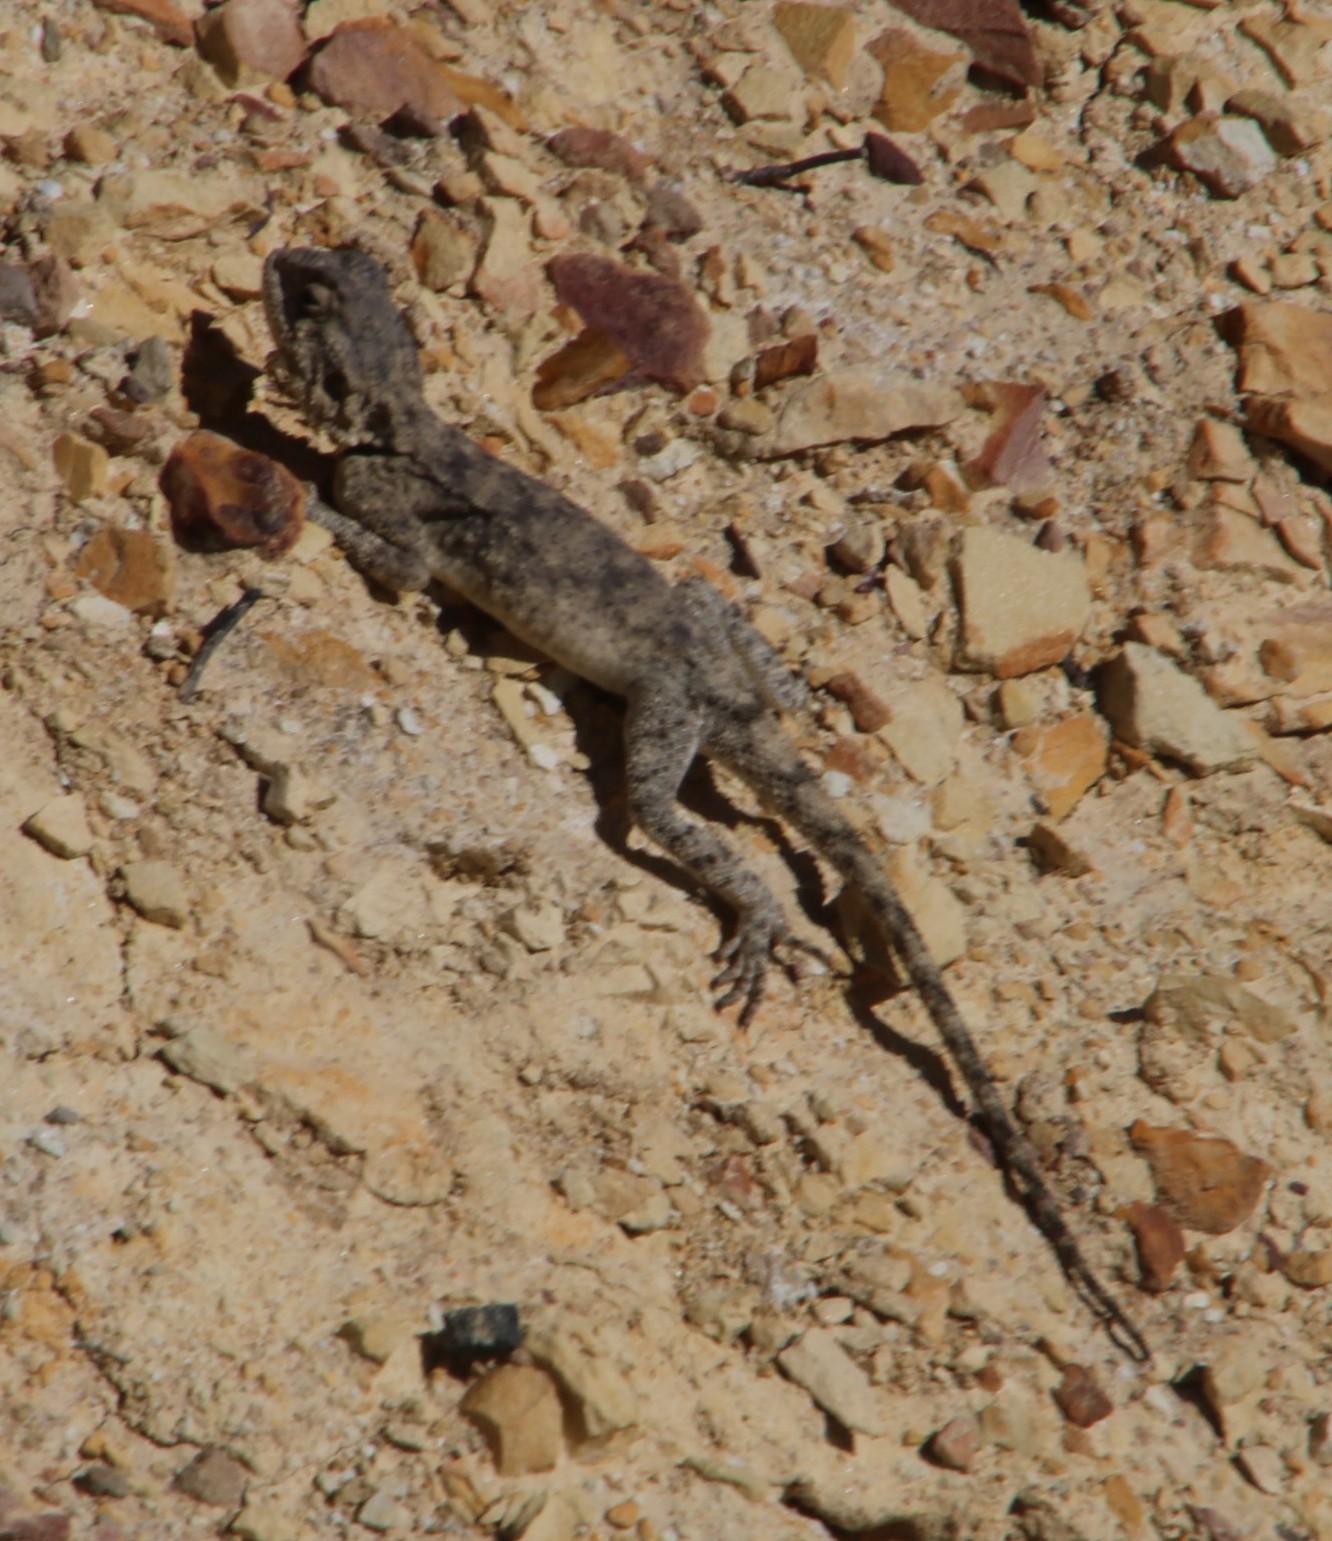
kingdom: Animalia
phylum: Chordata
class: Squamata
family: Agamidae
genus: Agama
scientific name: Agama atra
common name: Southern african rock agama
